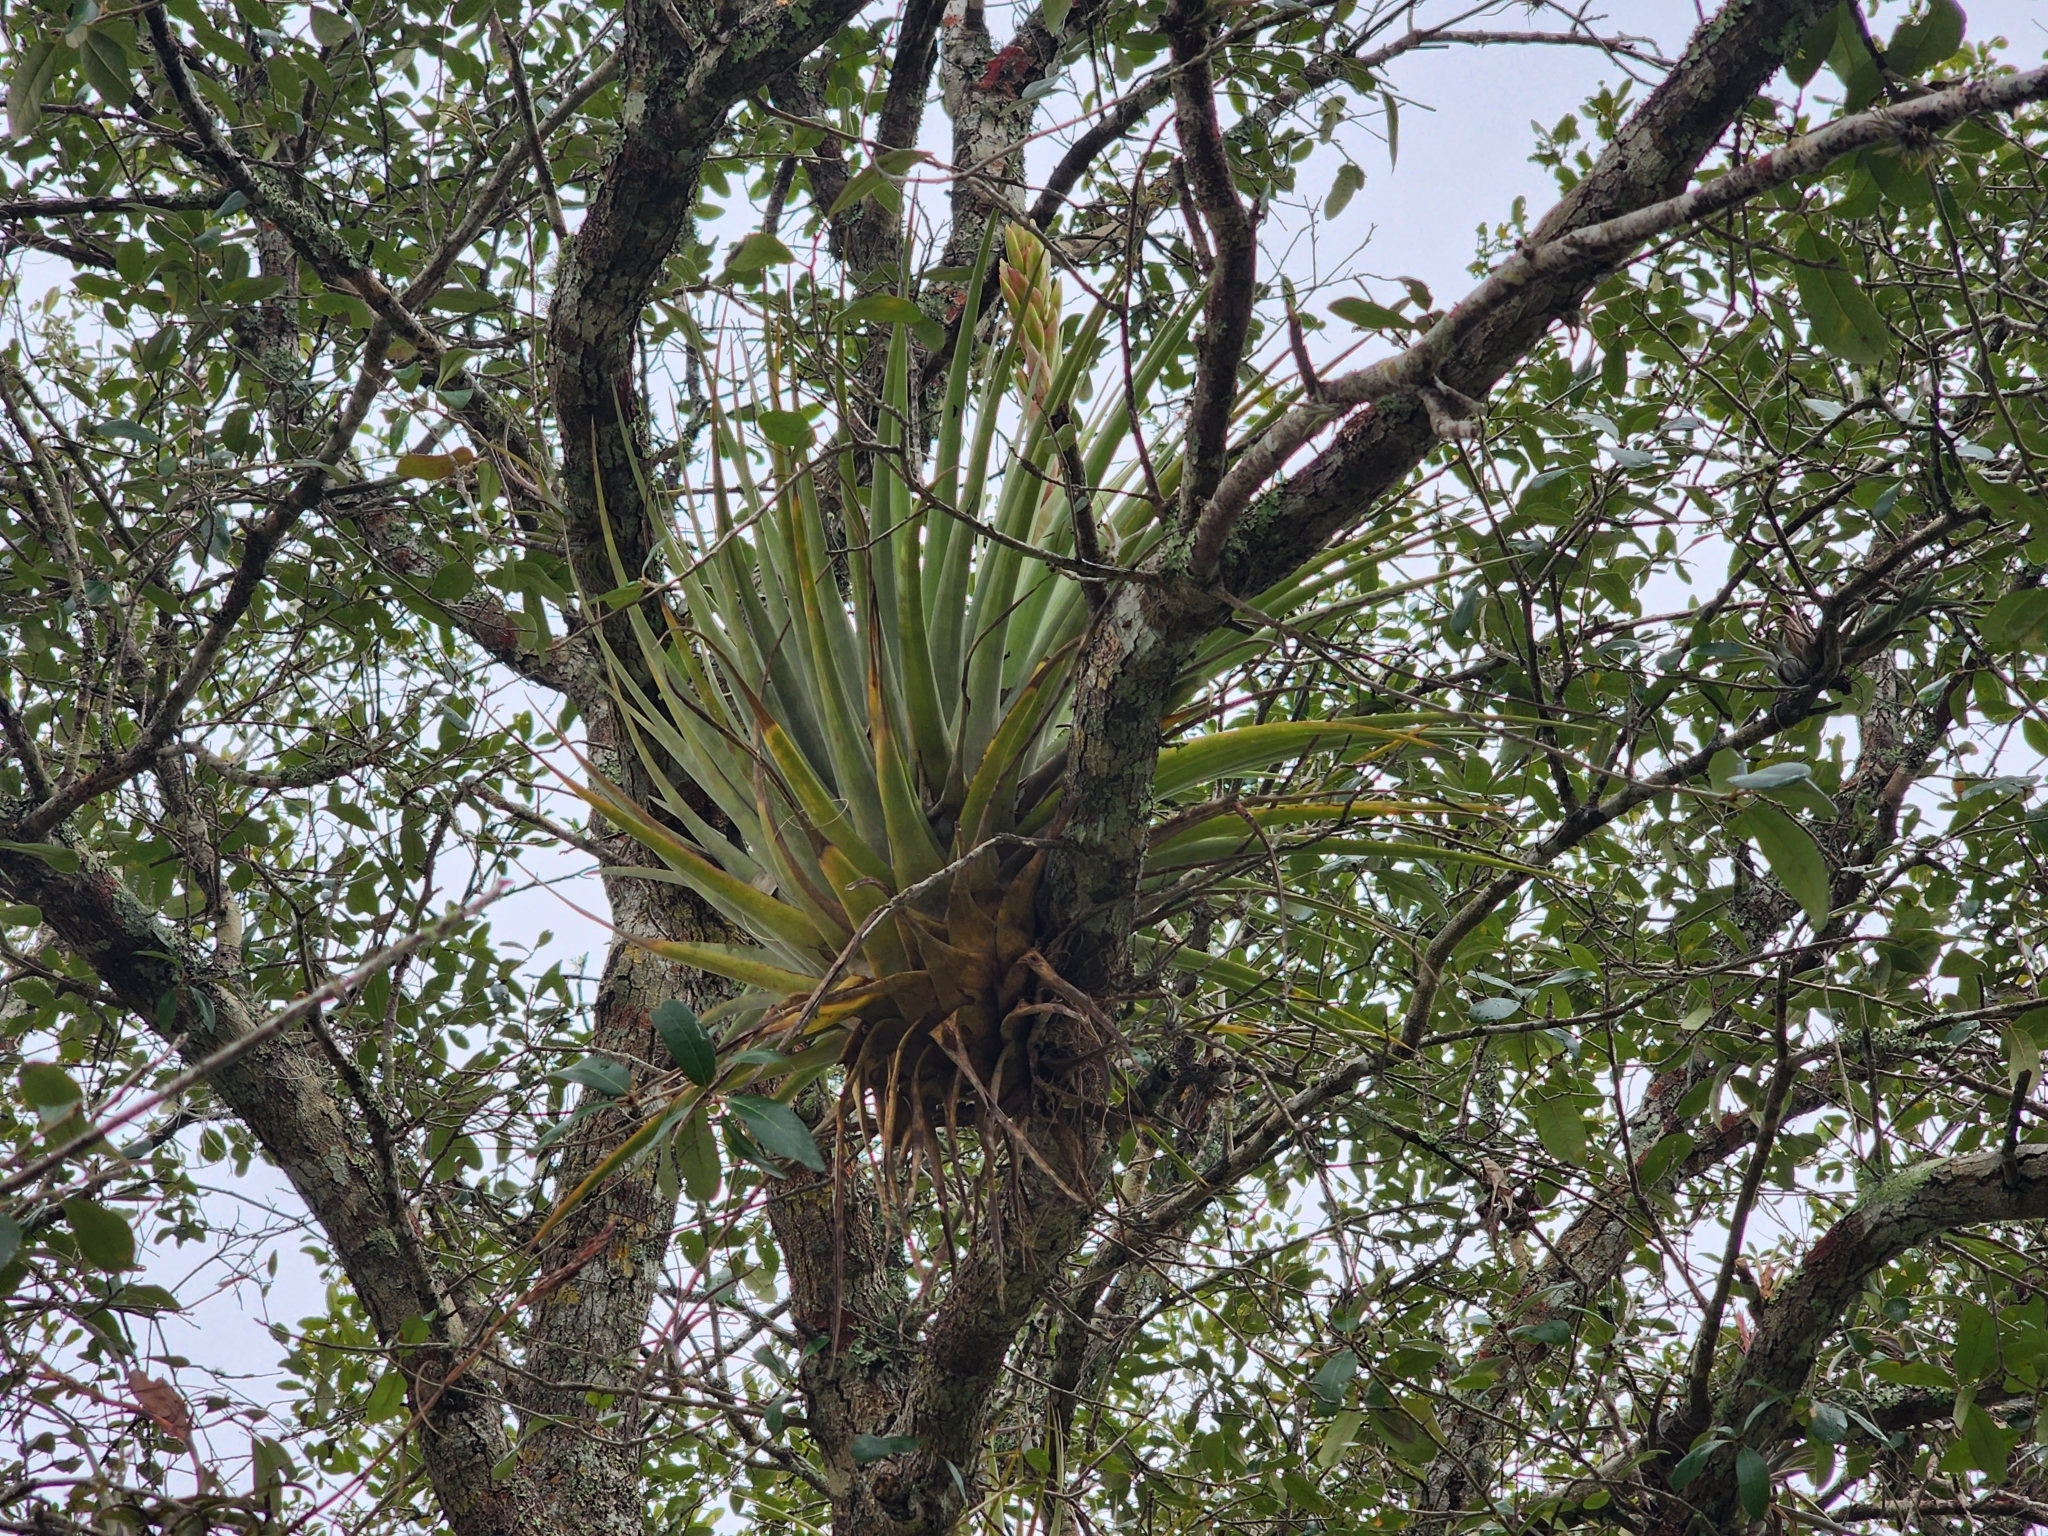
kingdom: Plantae
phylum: Tracheophyta
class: Liliopsida
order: Poales
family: Bromeliaceae
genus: Tillandsia
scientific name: Tillandsia fasciculata
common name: Giant airplant
